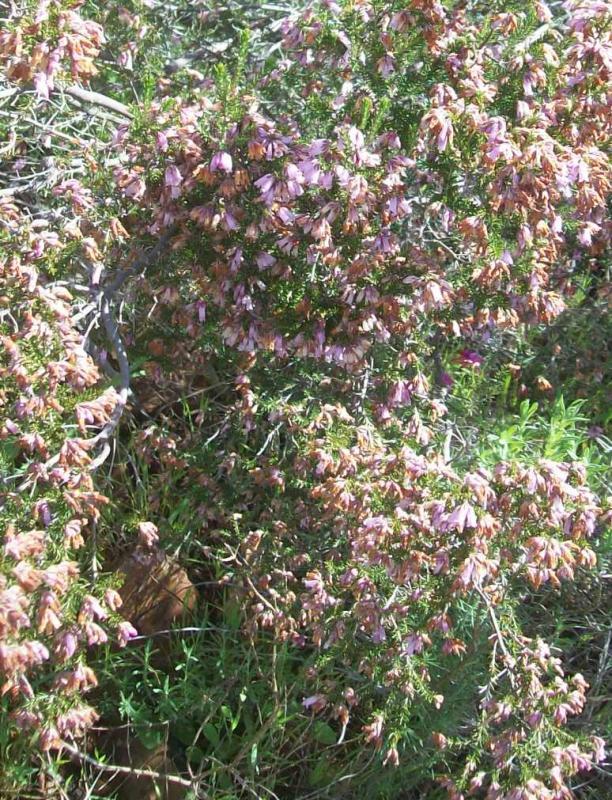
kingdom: Plantae
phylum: Tracheophyta
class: Magnoliopsida
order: Ericales
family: Ericaceae
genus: Erica
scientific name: Erica australis
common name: Spanish heath
